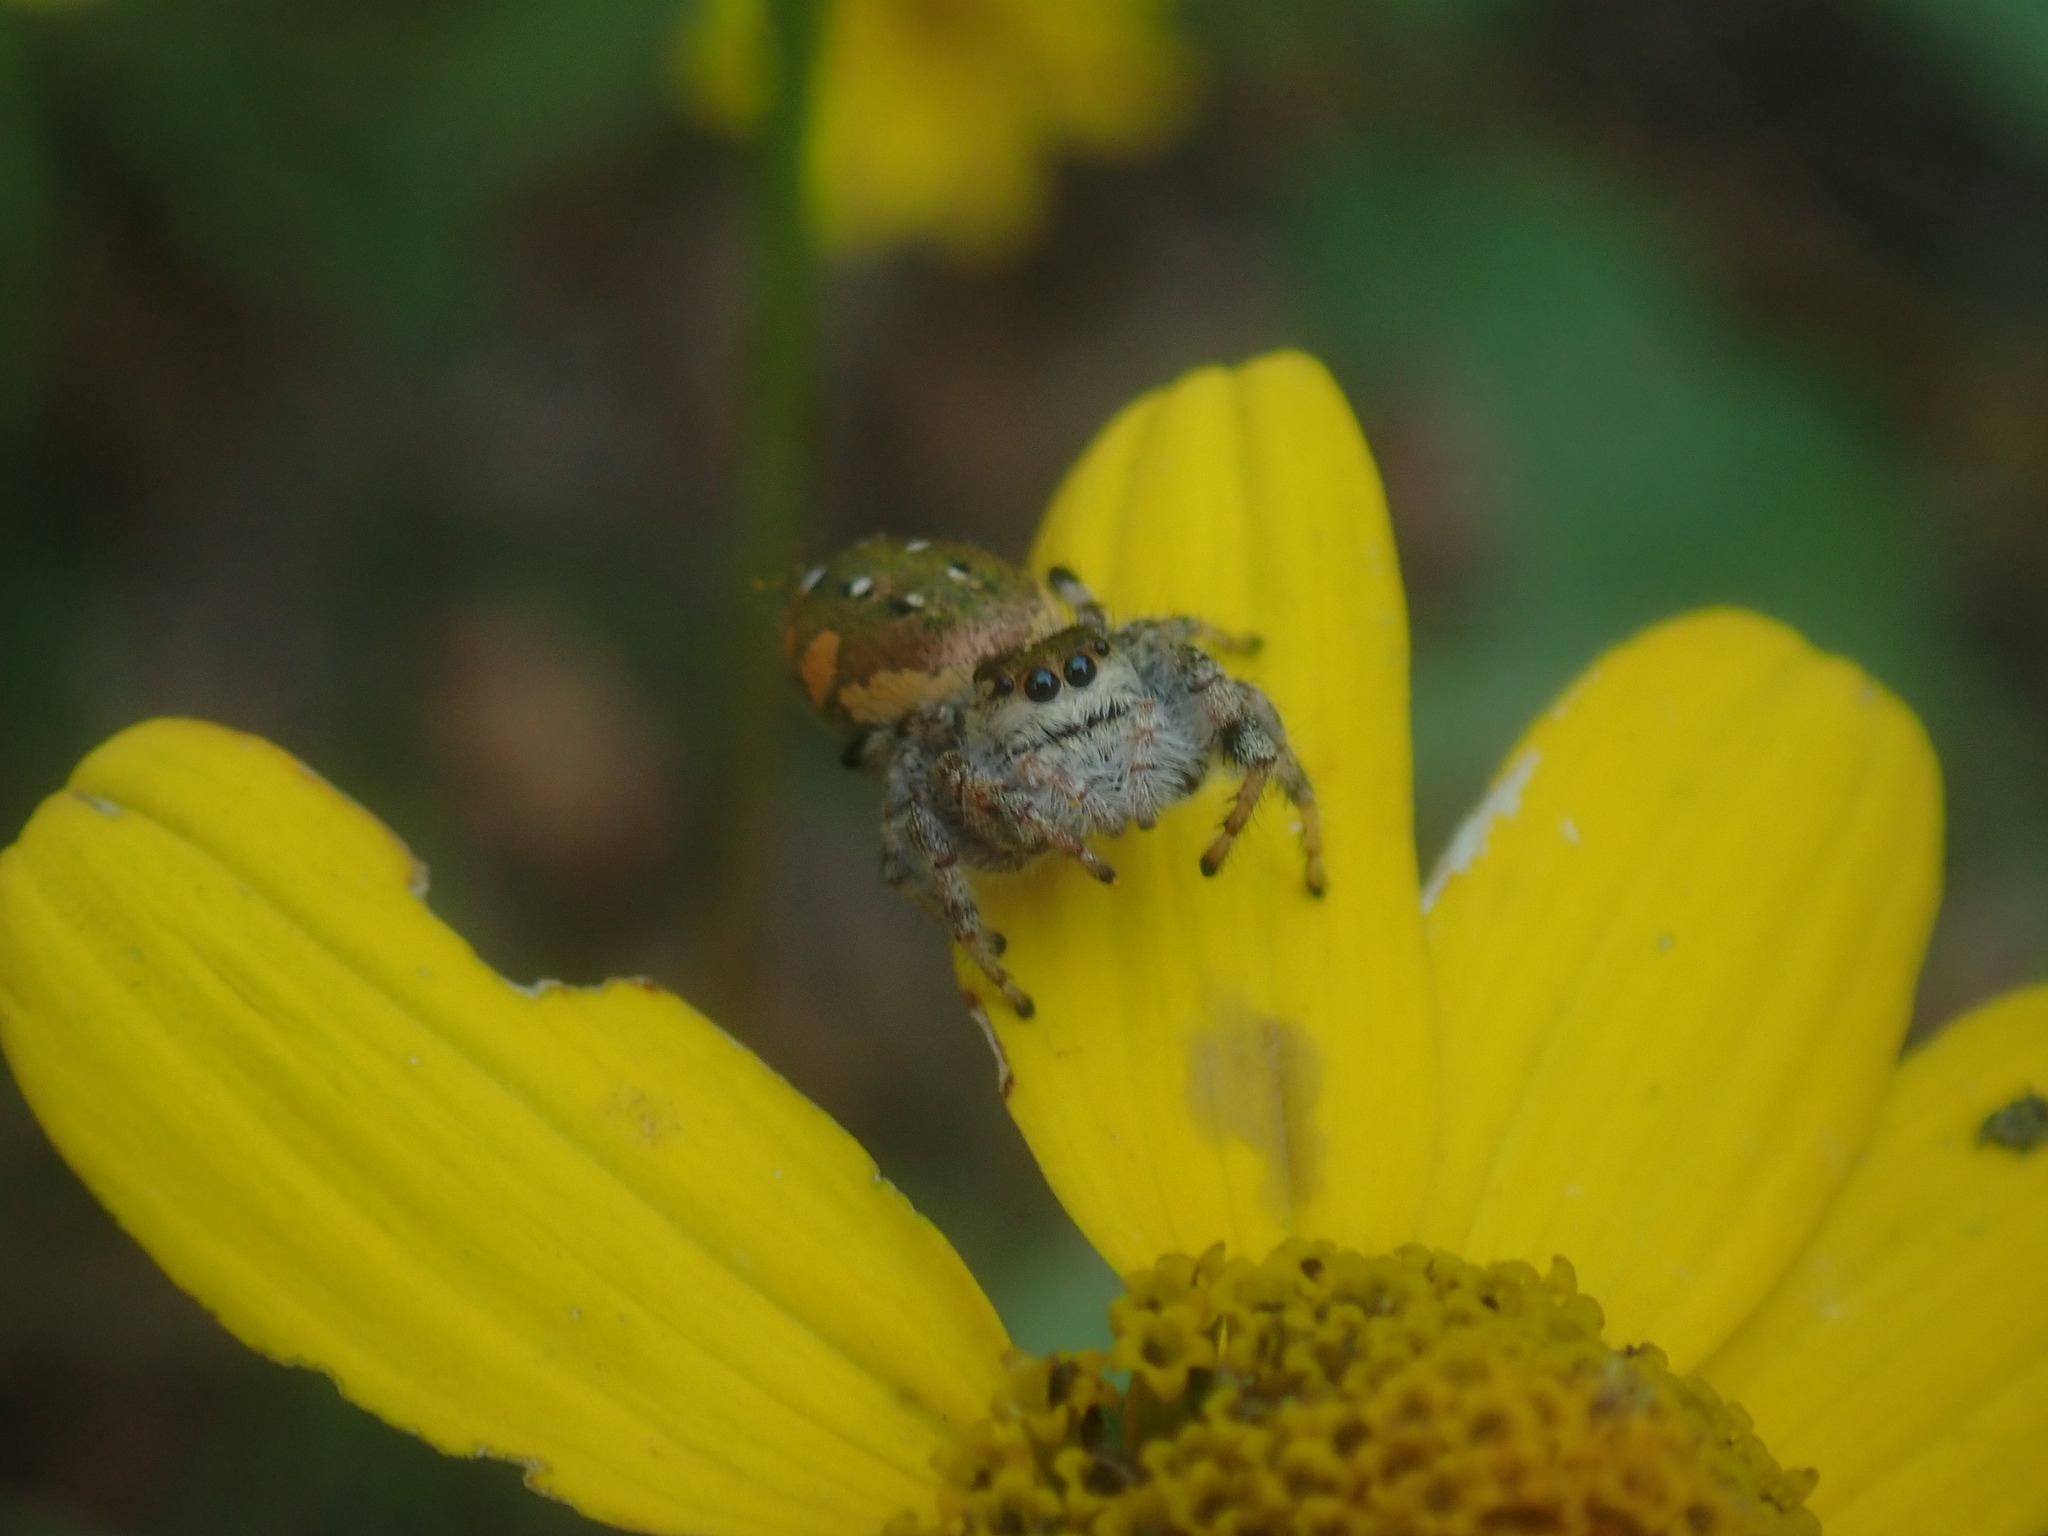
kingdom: Animalia
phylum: Arthropoda
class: Arachnida
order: Araneae
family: Salticidae
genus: Paraphidippus
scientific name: Paraphidippus aurantius
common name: Jumping spiders
